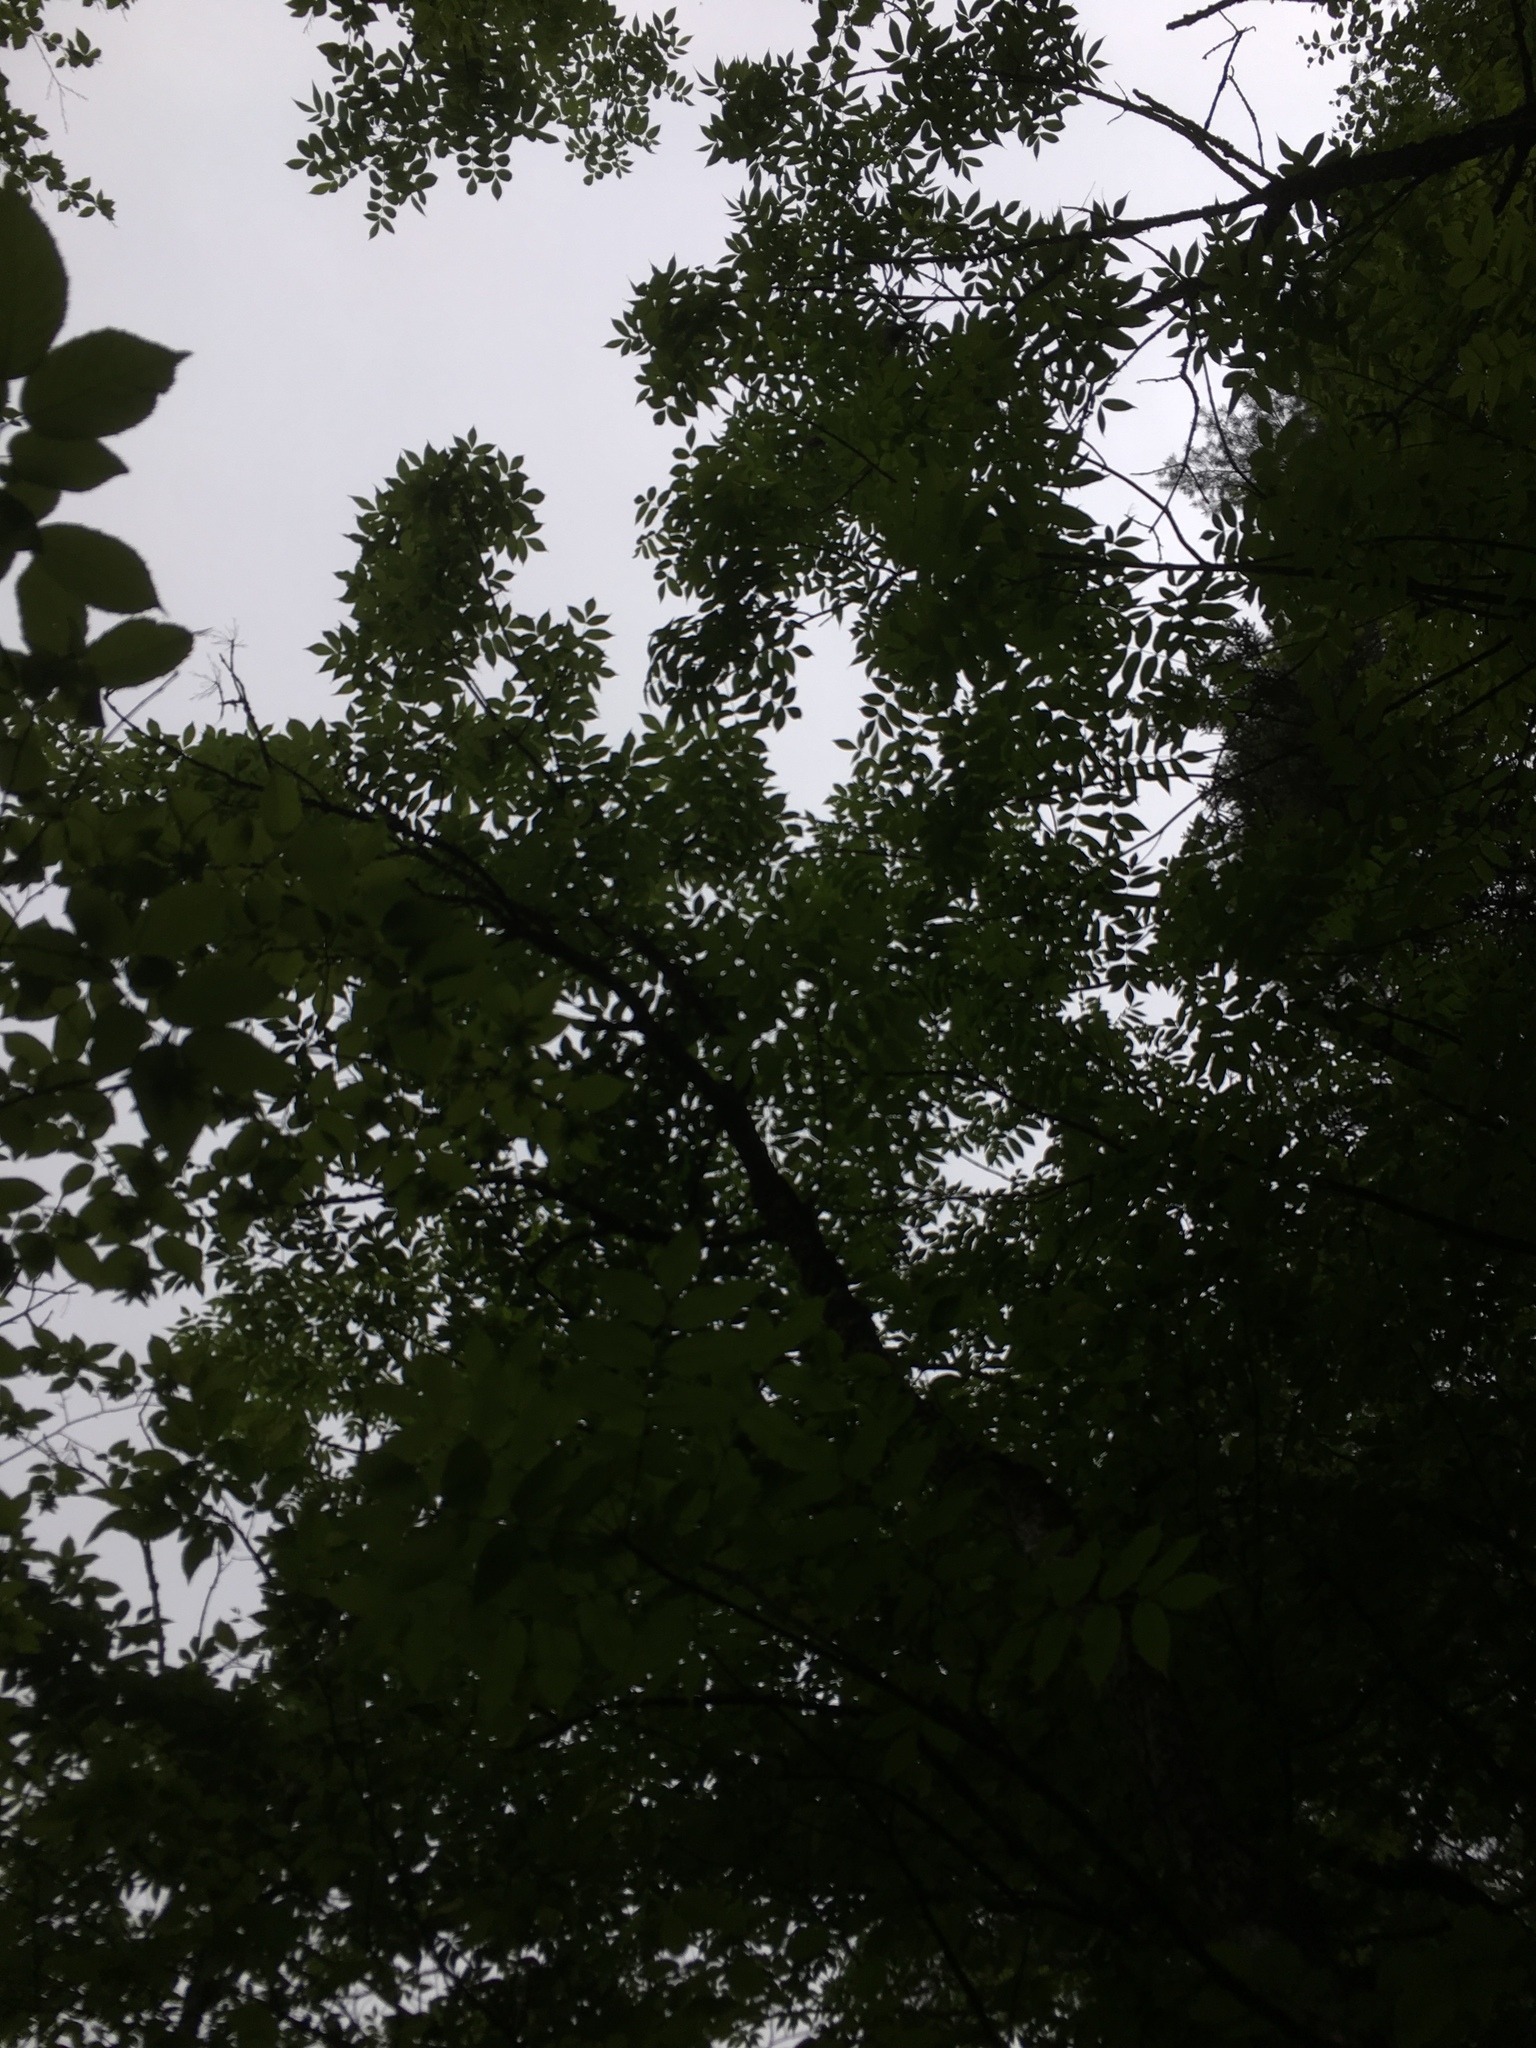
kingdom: Plantae
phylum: Tracheophyta
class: Magnoliopsida
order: Lamiales
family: Oleaceae
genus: Fraxinus
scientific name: Fraxinus nigra
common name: Black ash
